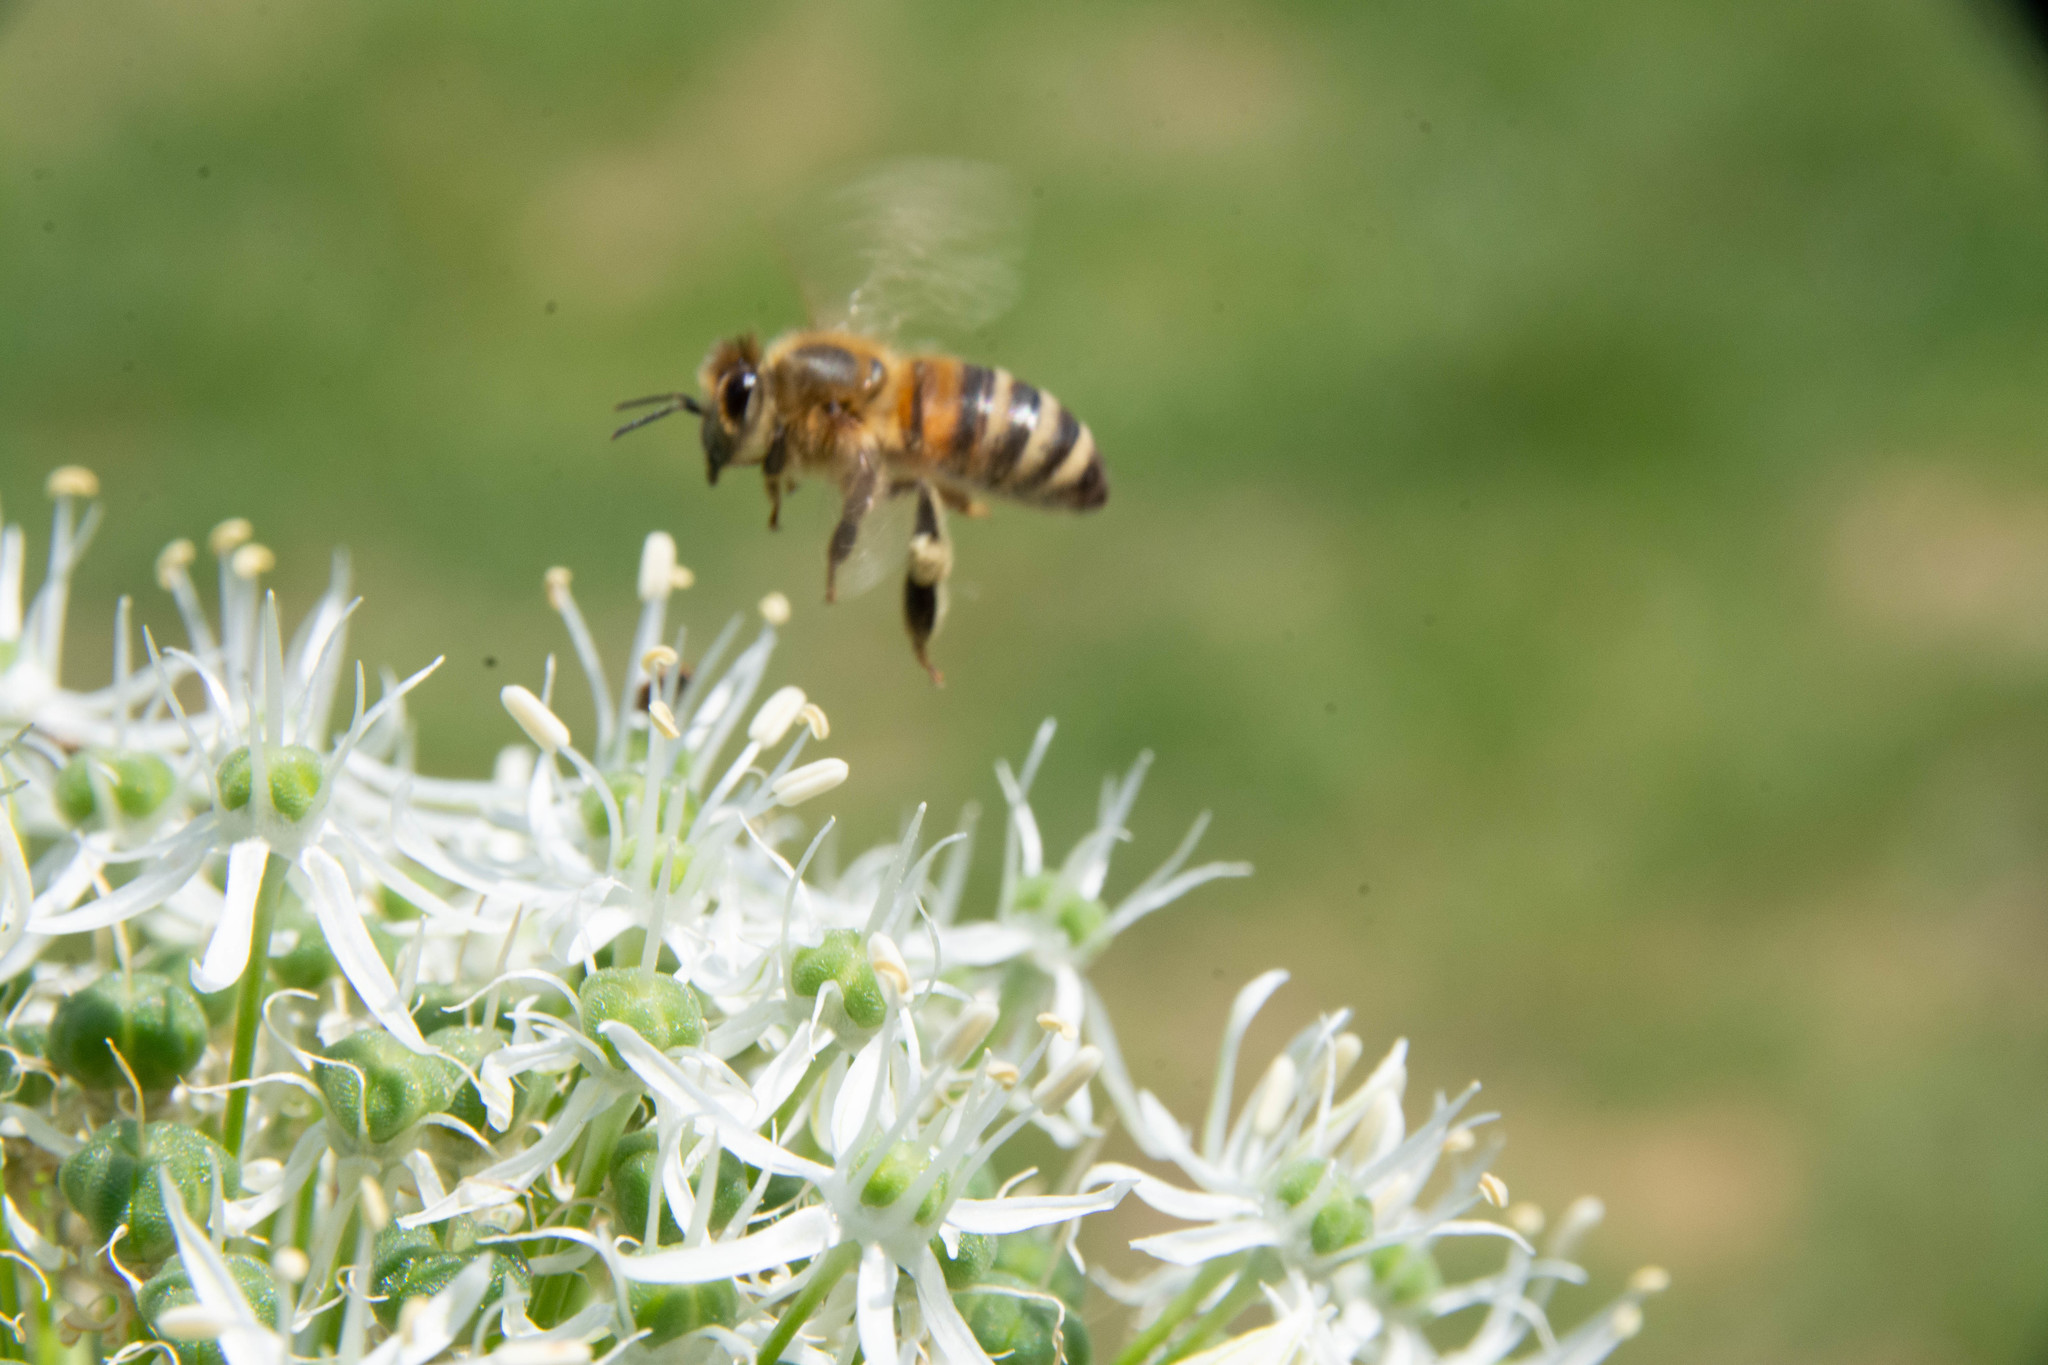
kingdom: Animalia
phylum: Arthropoda
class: Insecta
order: Hymenoptera
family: Apidae
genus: Apis
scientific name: Apis mellifera
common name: Honey bee
